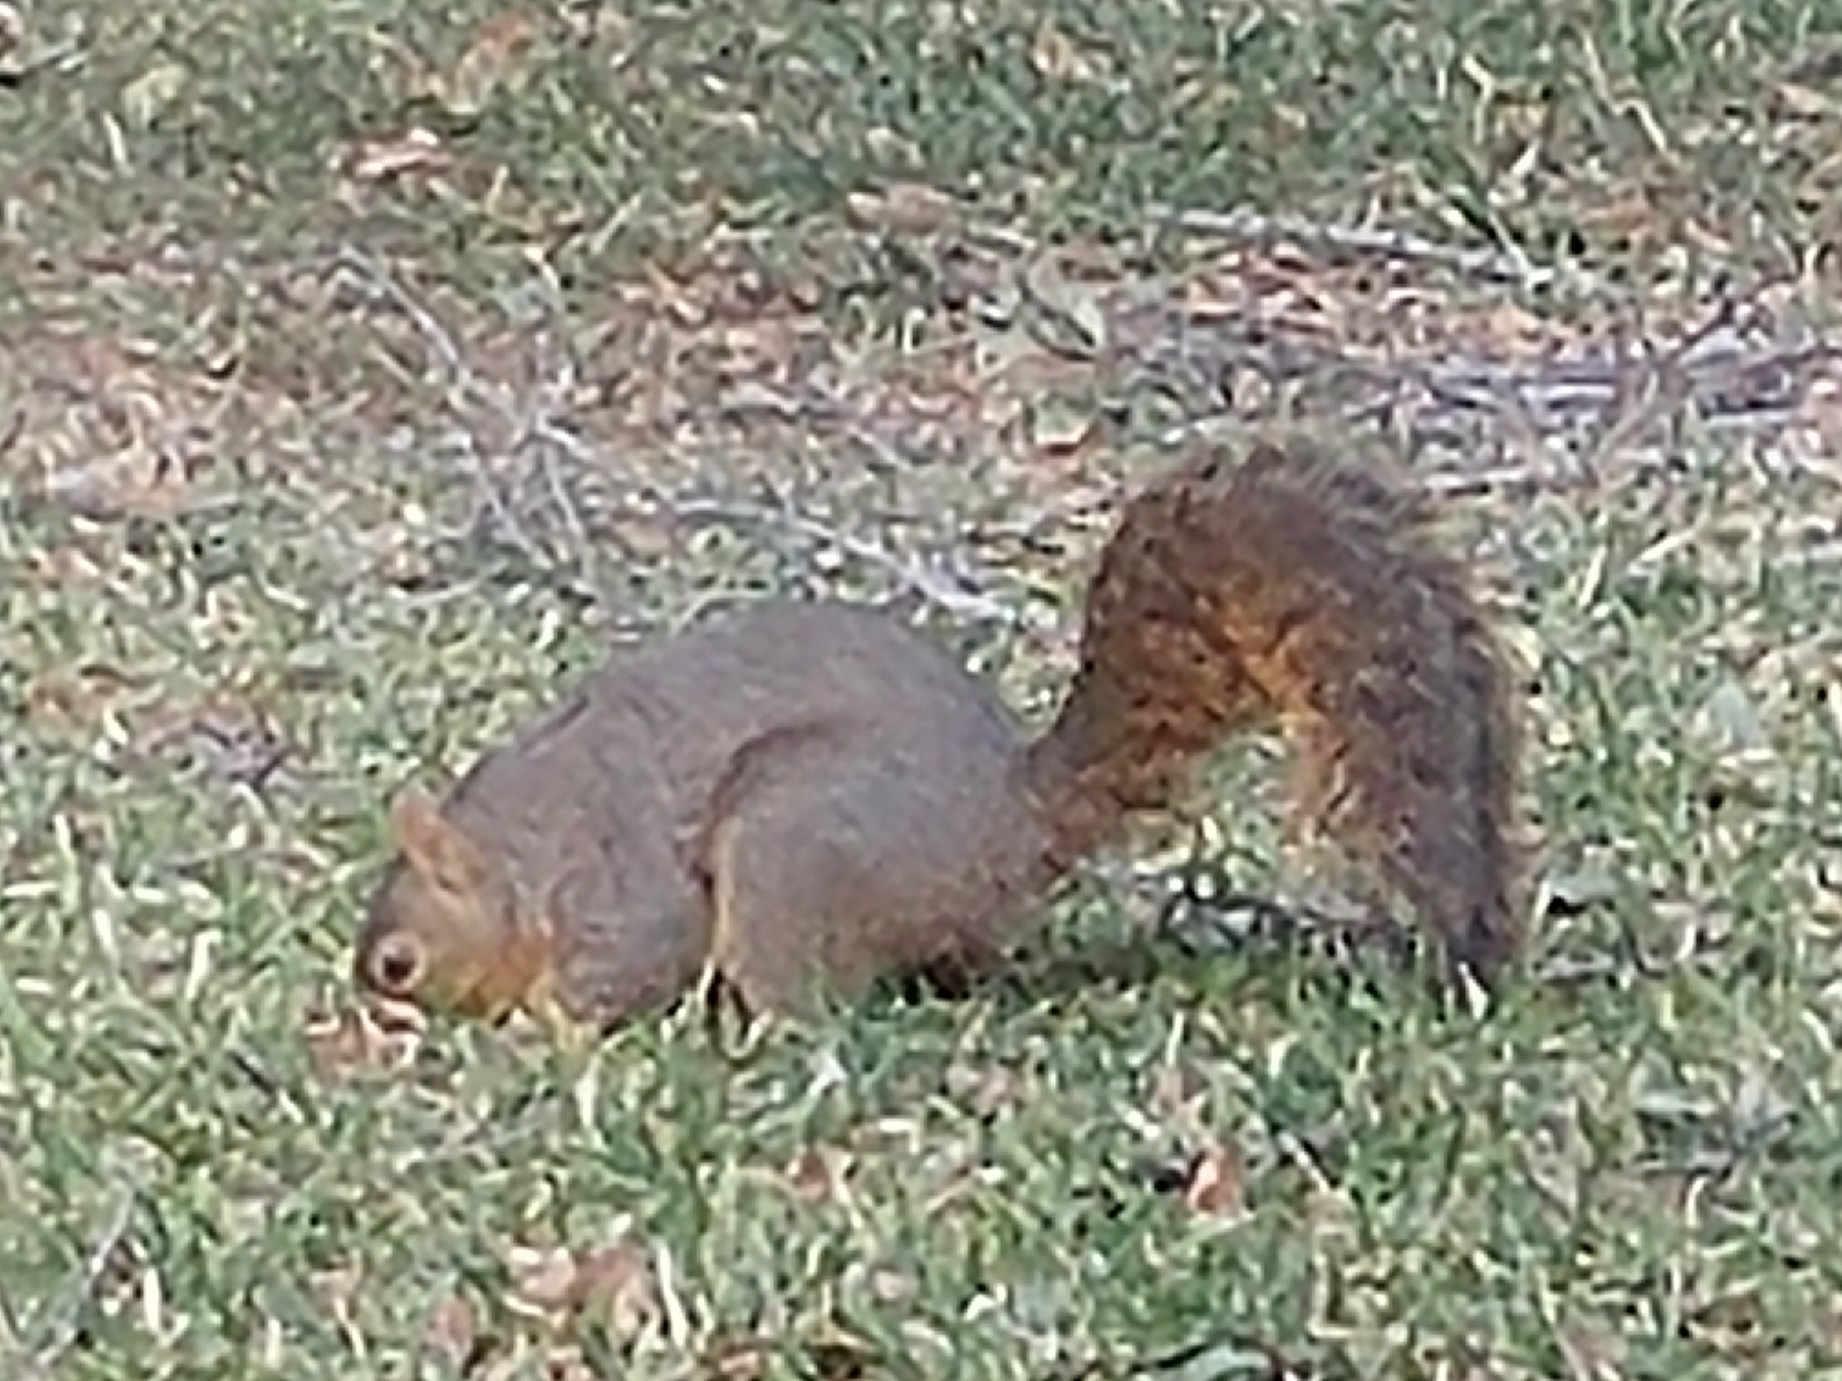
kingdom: Animalia
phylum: Chordata
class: Mammalia
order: Rodentia
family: Sciuridae
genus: Sciurus
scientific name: Sciurus niger
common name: Fox squirrel
